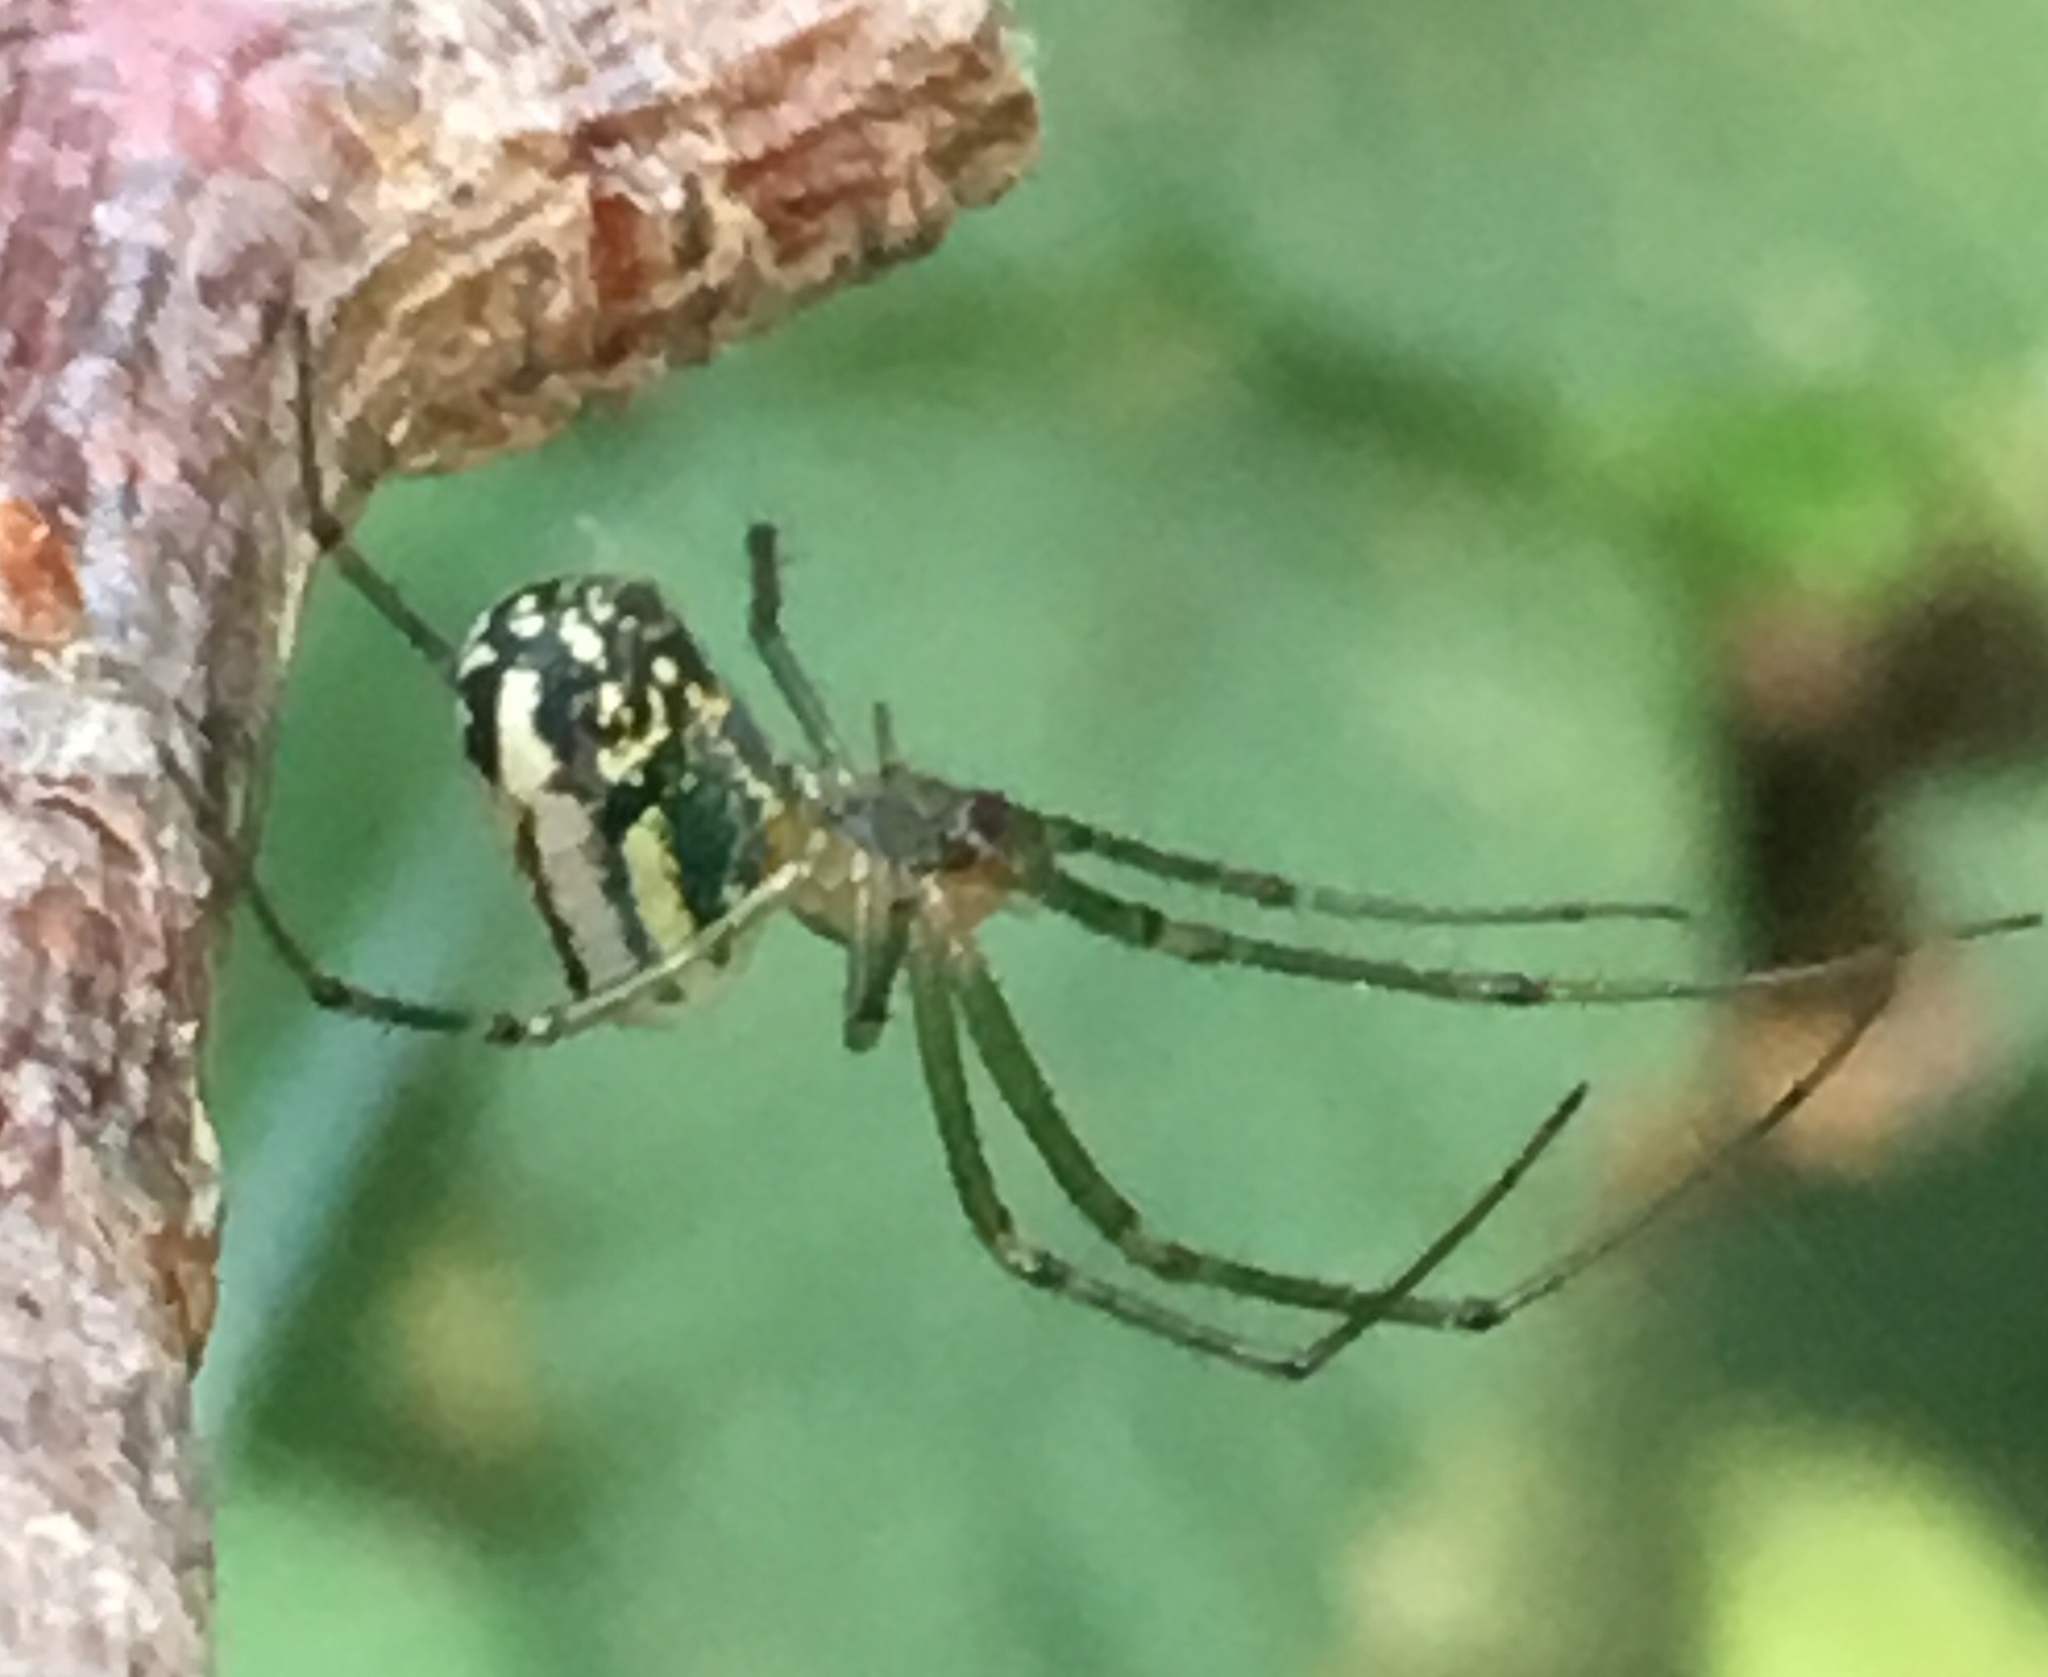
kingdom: Animalia
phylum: Arthropoda
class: Arachnida
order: Araneae
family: Tetragnathidae
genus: Leucauge
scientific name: Leucauge venusta
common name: Longjawed orb weavers
